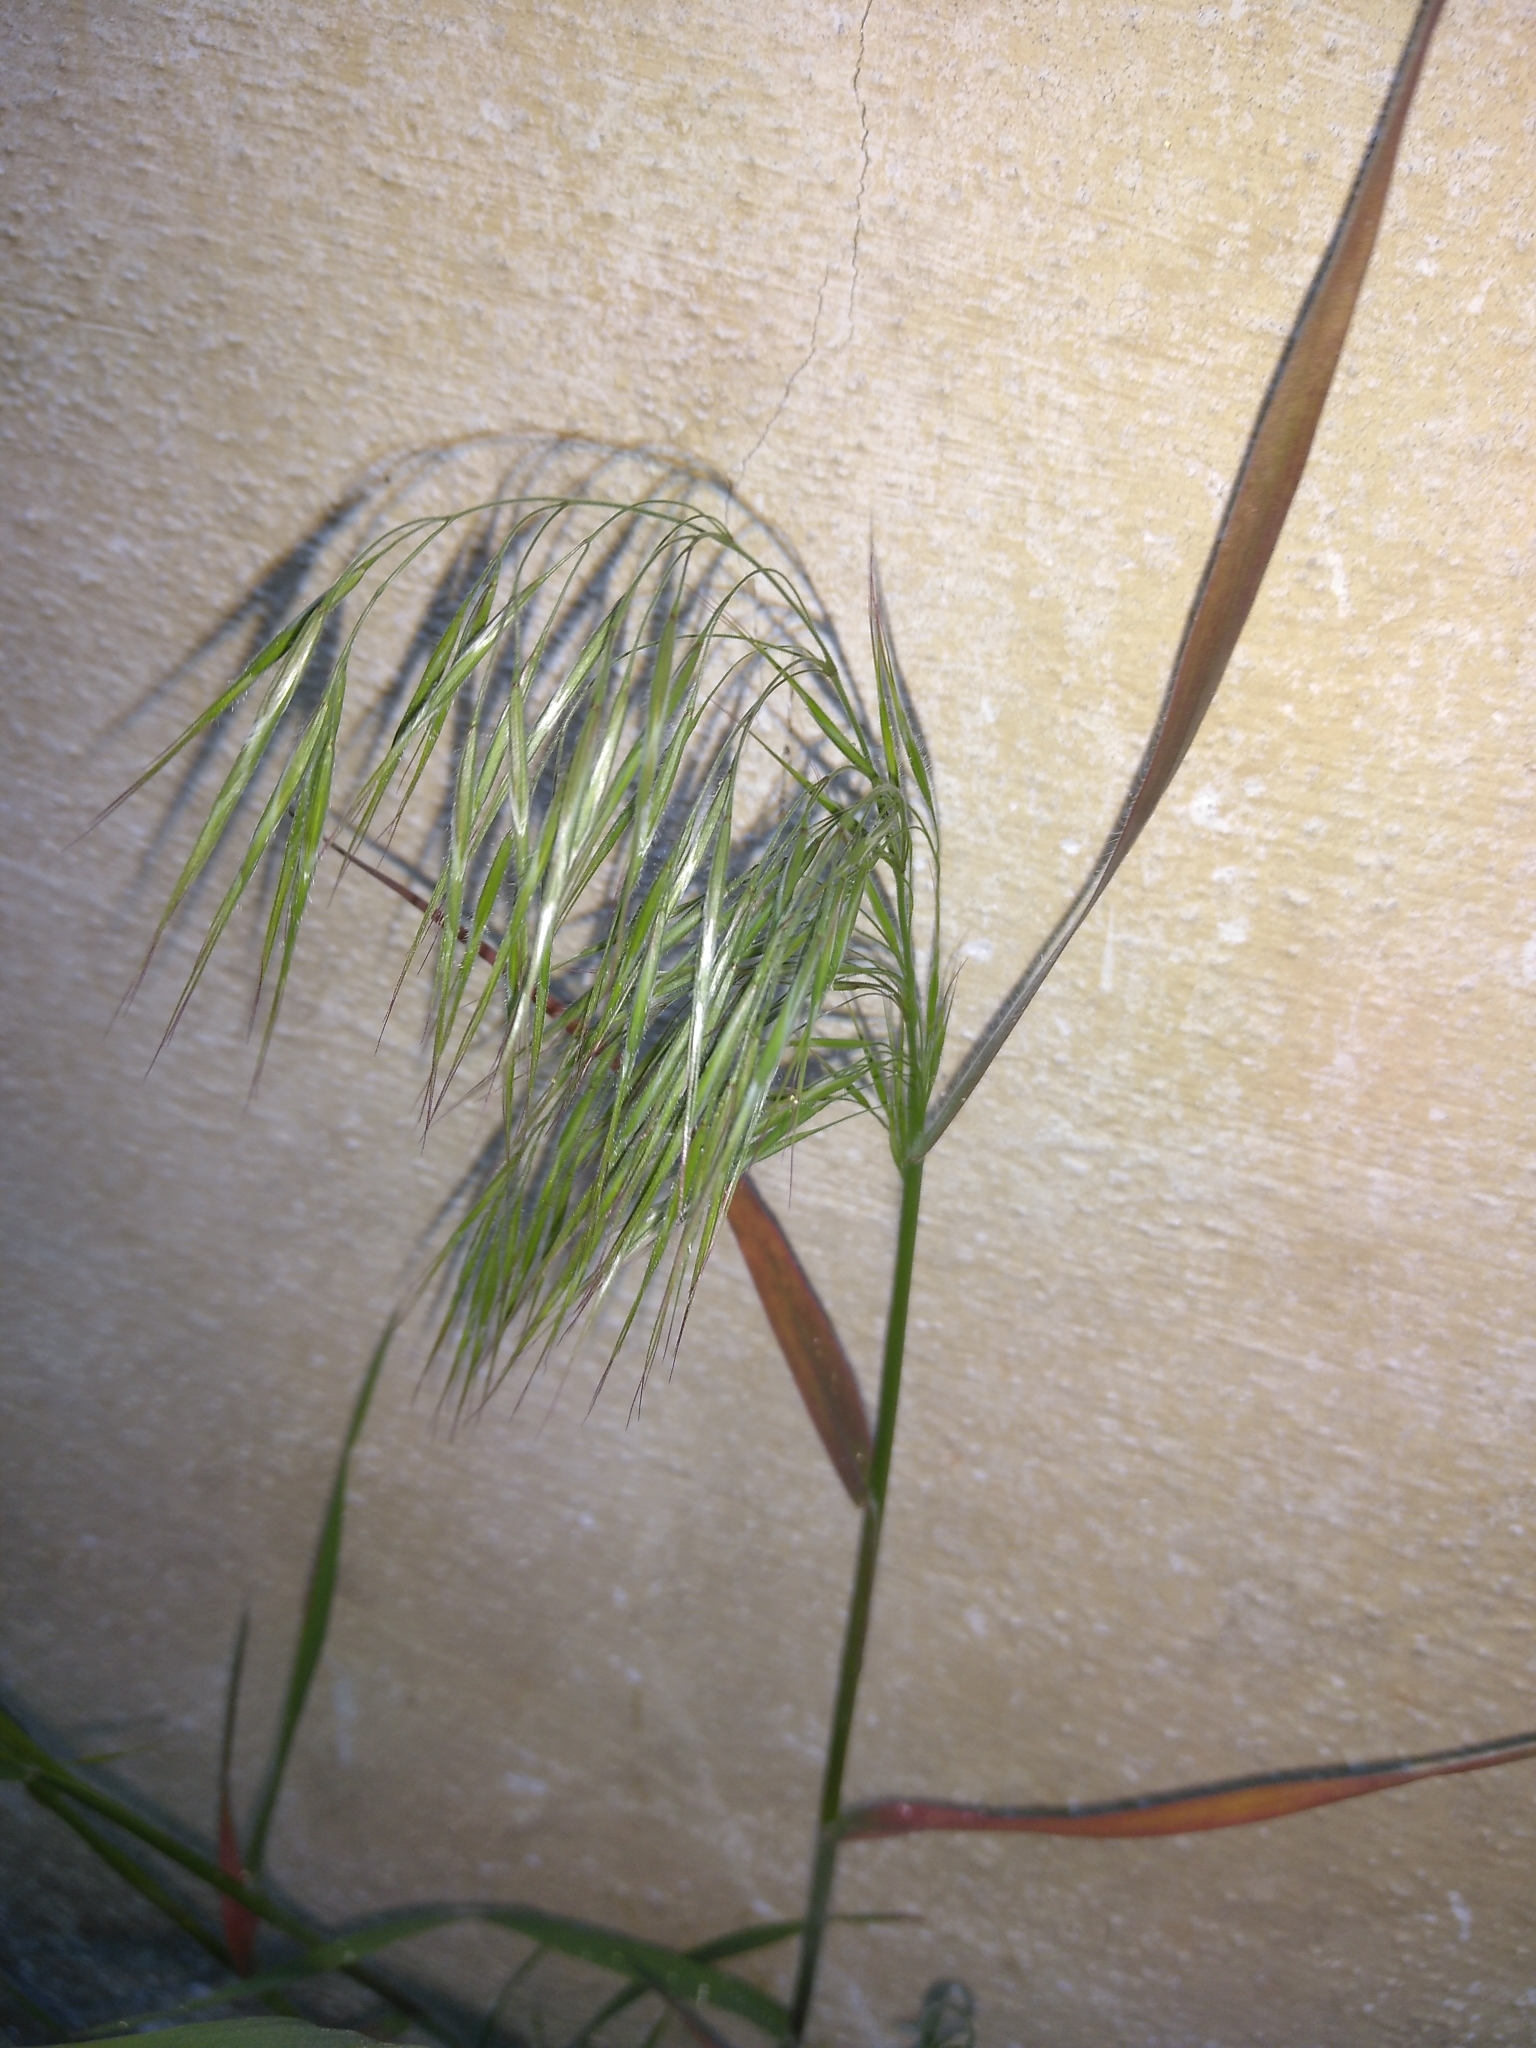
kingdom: Plantae
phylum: Tracheophyta
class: Liliopsida
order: Poales
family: Poaceae
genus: Bromus
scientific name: Bromus tectorum
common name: Cheatgrass
